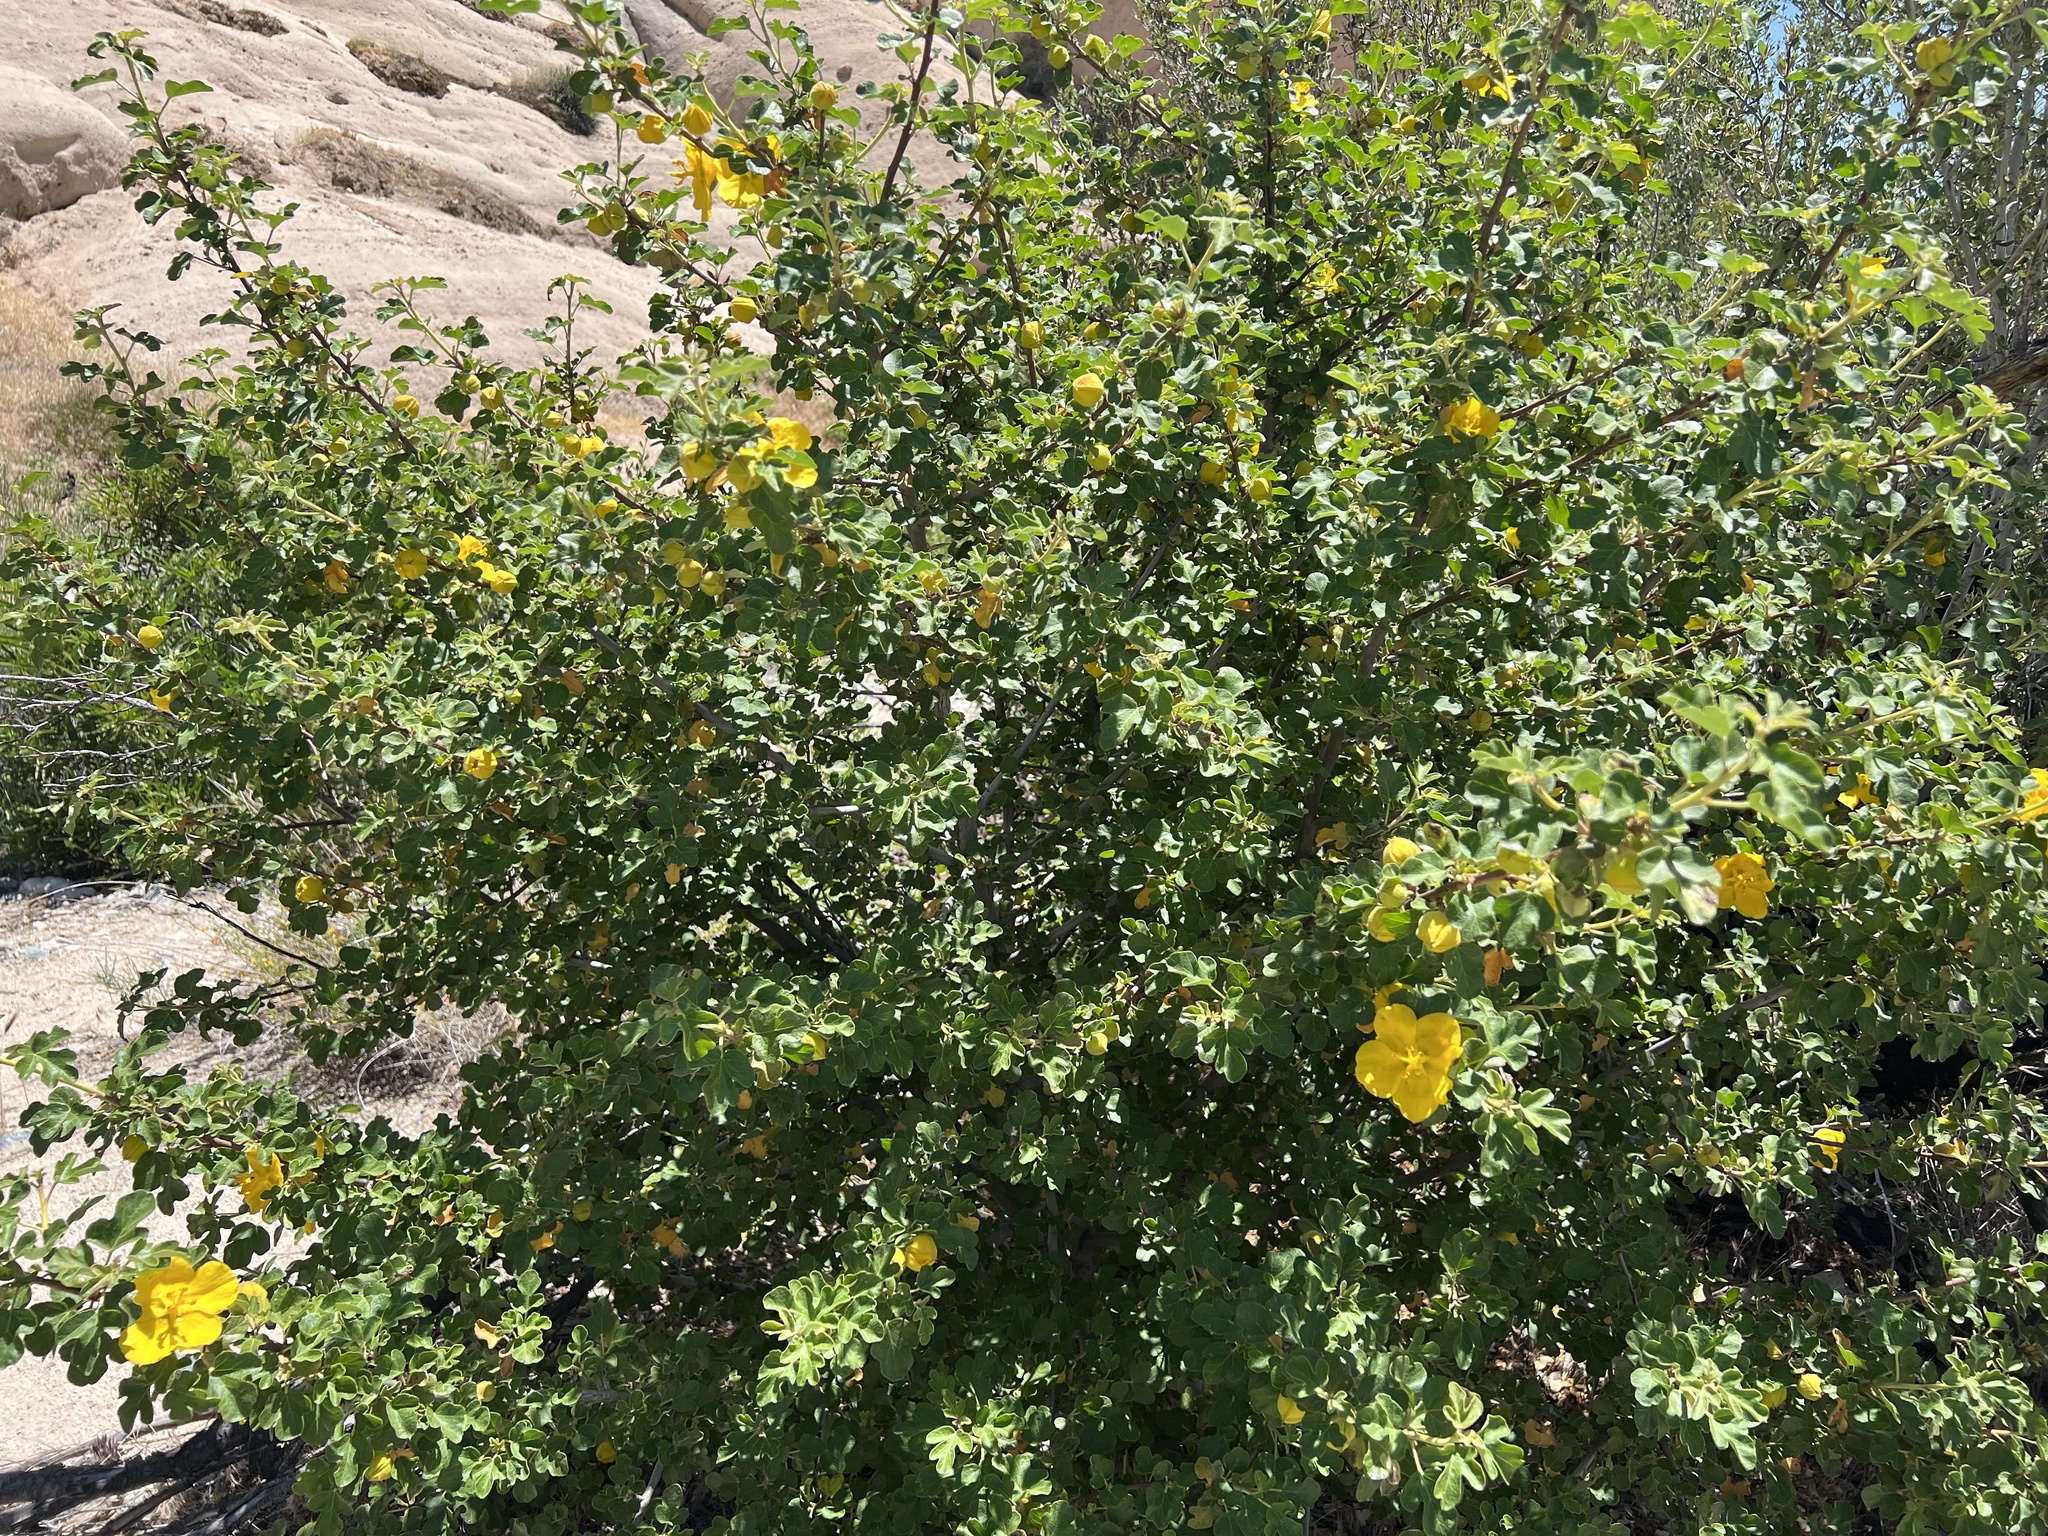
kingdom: Plantae
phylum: Tracheophyta
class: Magnoliopsida
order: Malvales
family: Malvaceae
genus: Fremontodendron
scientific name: Fremontodendron californicum
